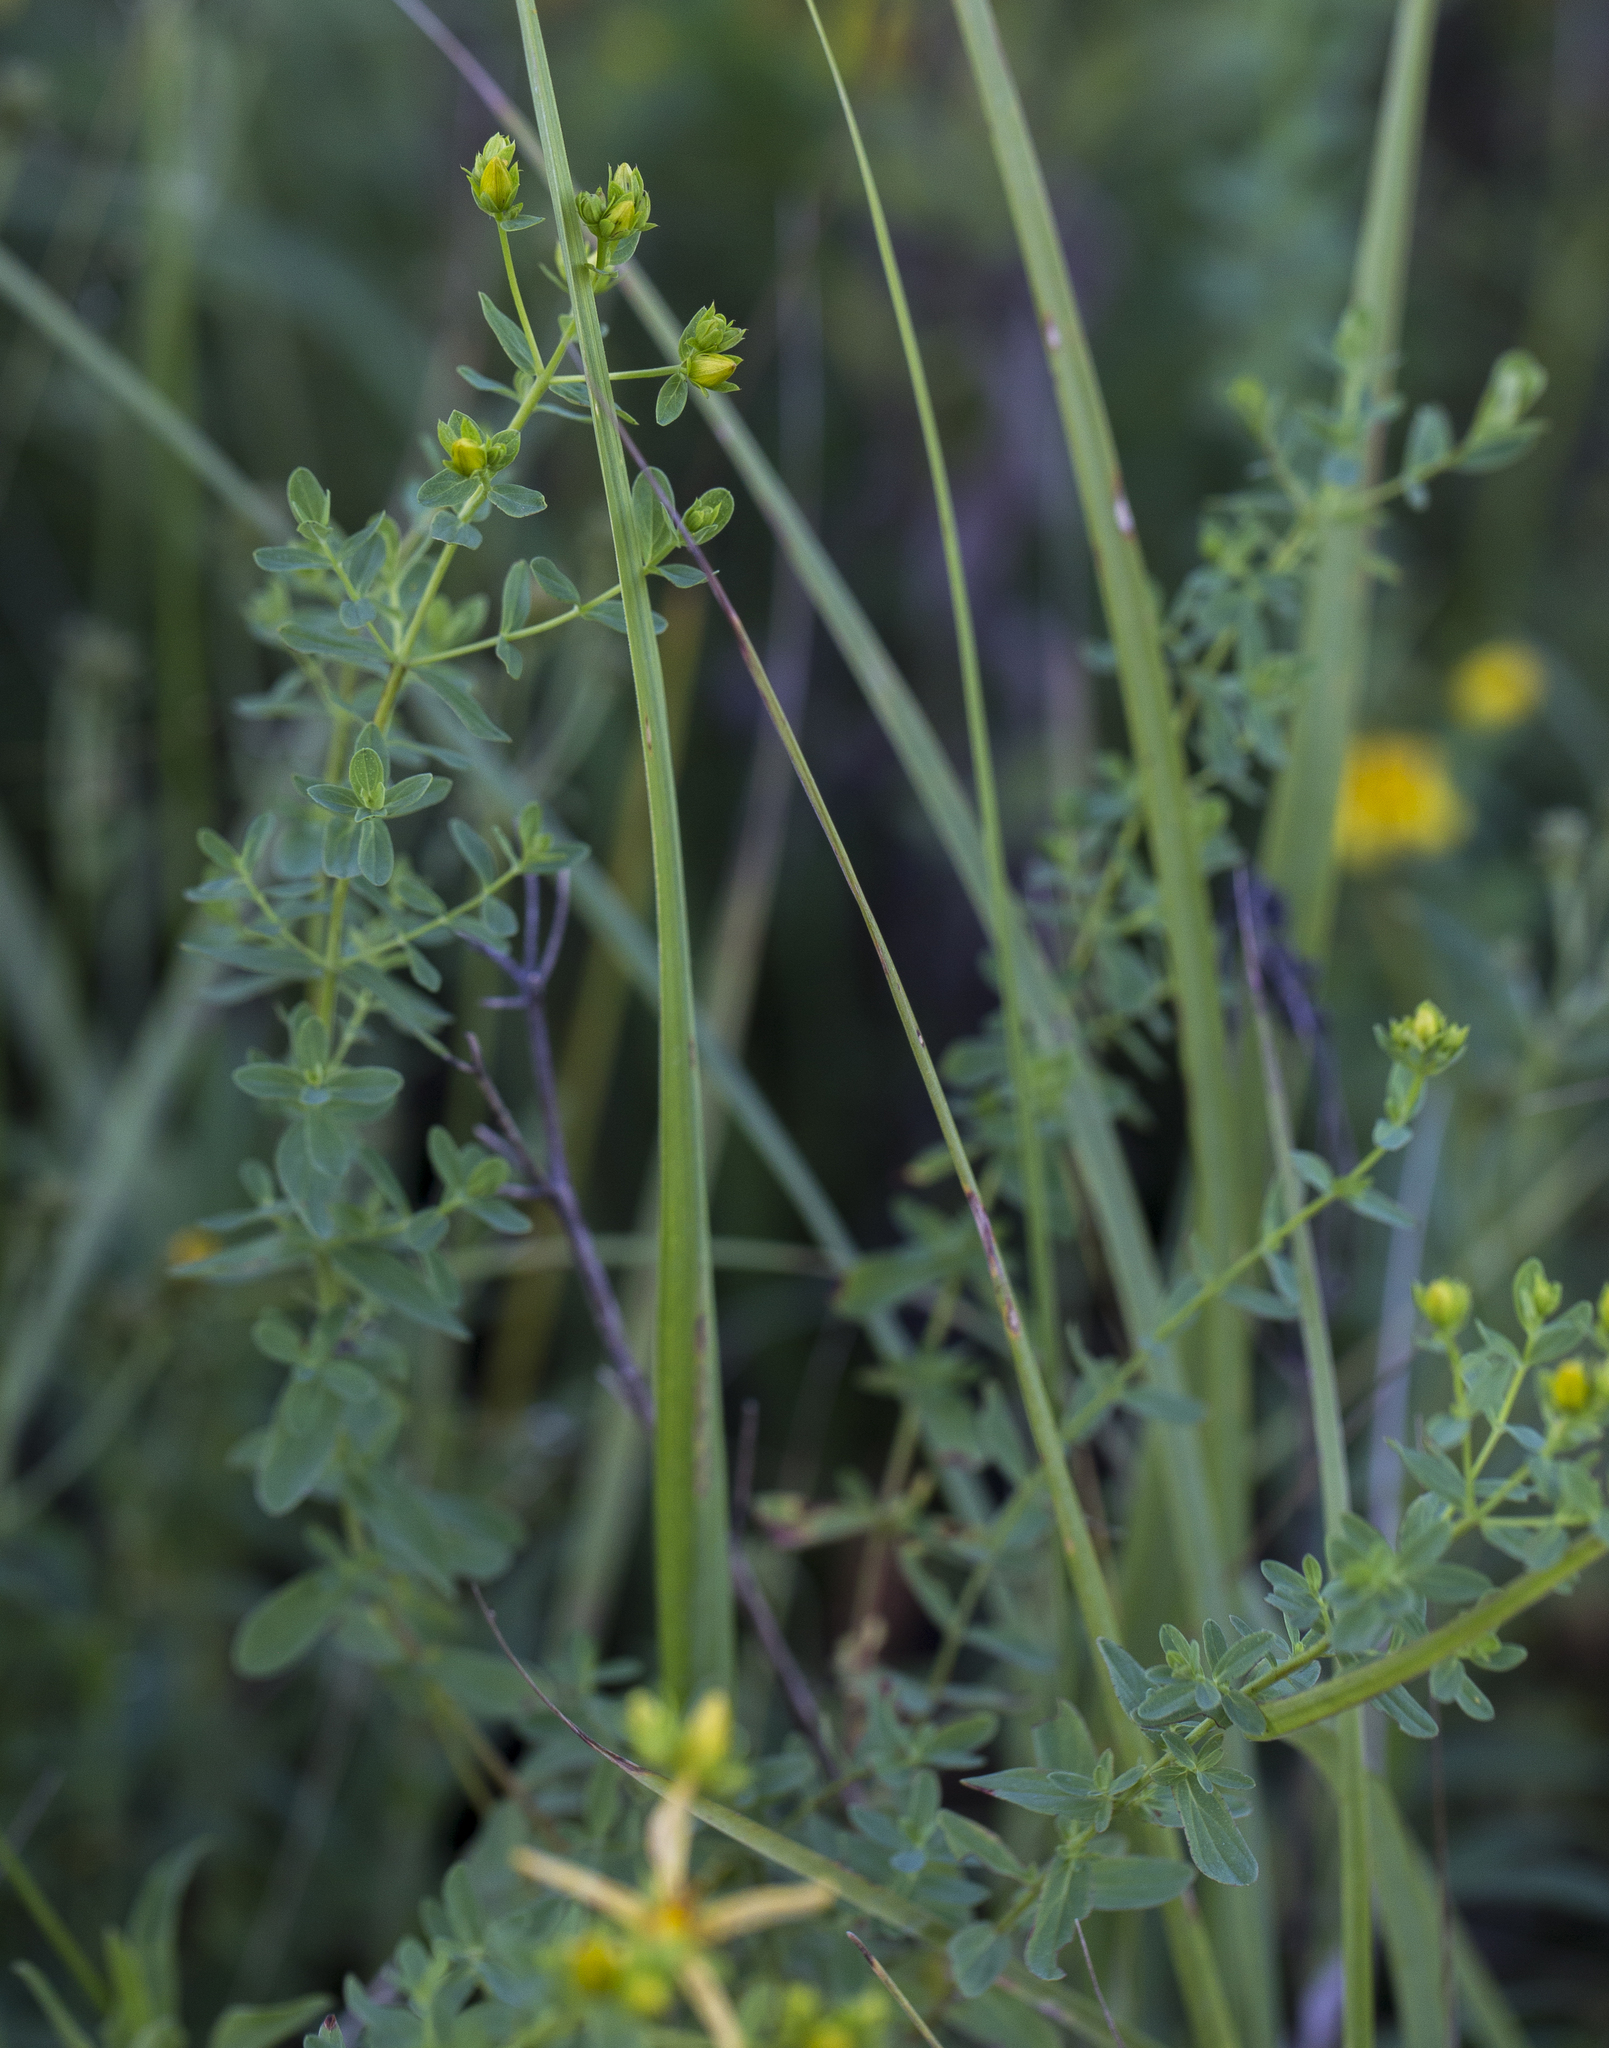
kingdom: Plantae
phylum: Tracheophyta
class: Magnoliopsida
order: Malpighiales
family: Hypericaceae
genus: Hypericum
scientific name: Hypericum perforatum
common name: Common st. johnswort
